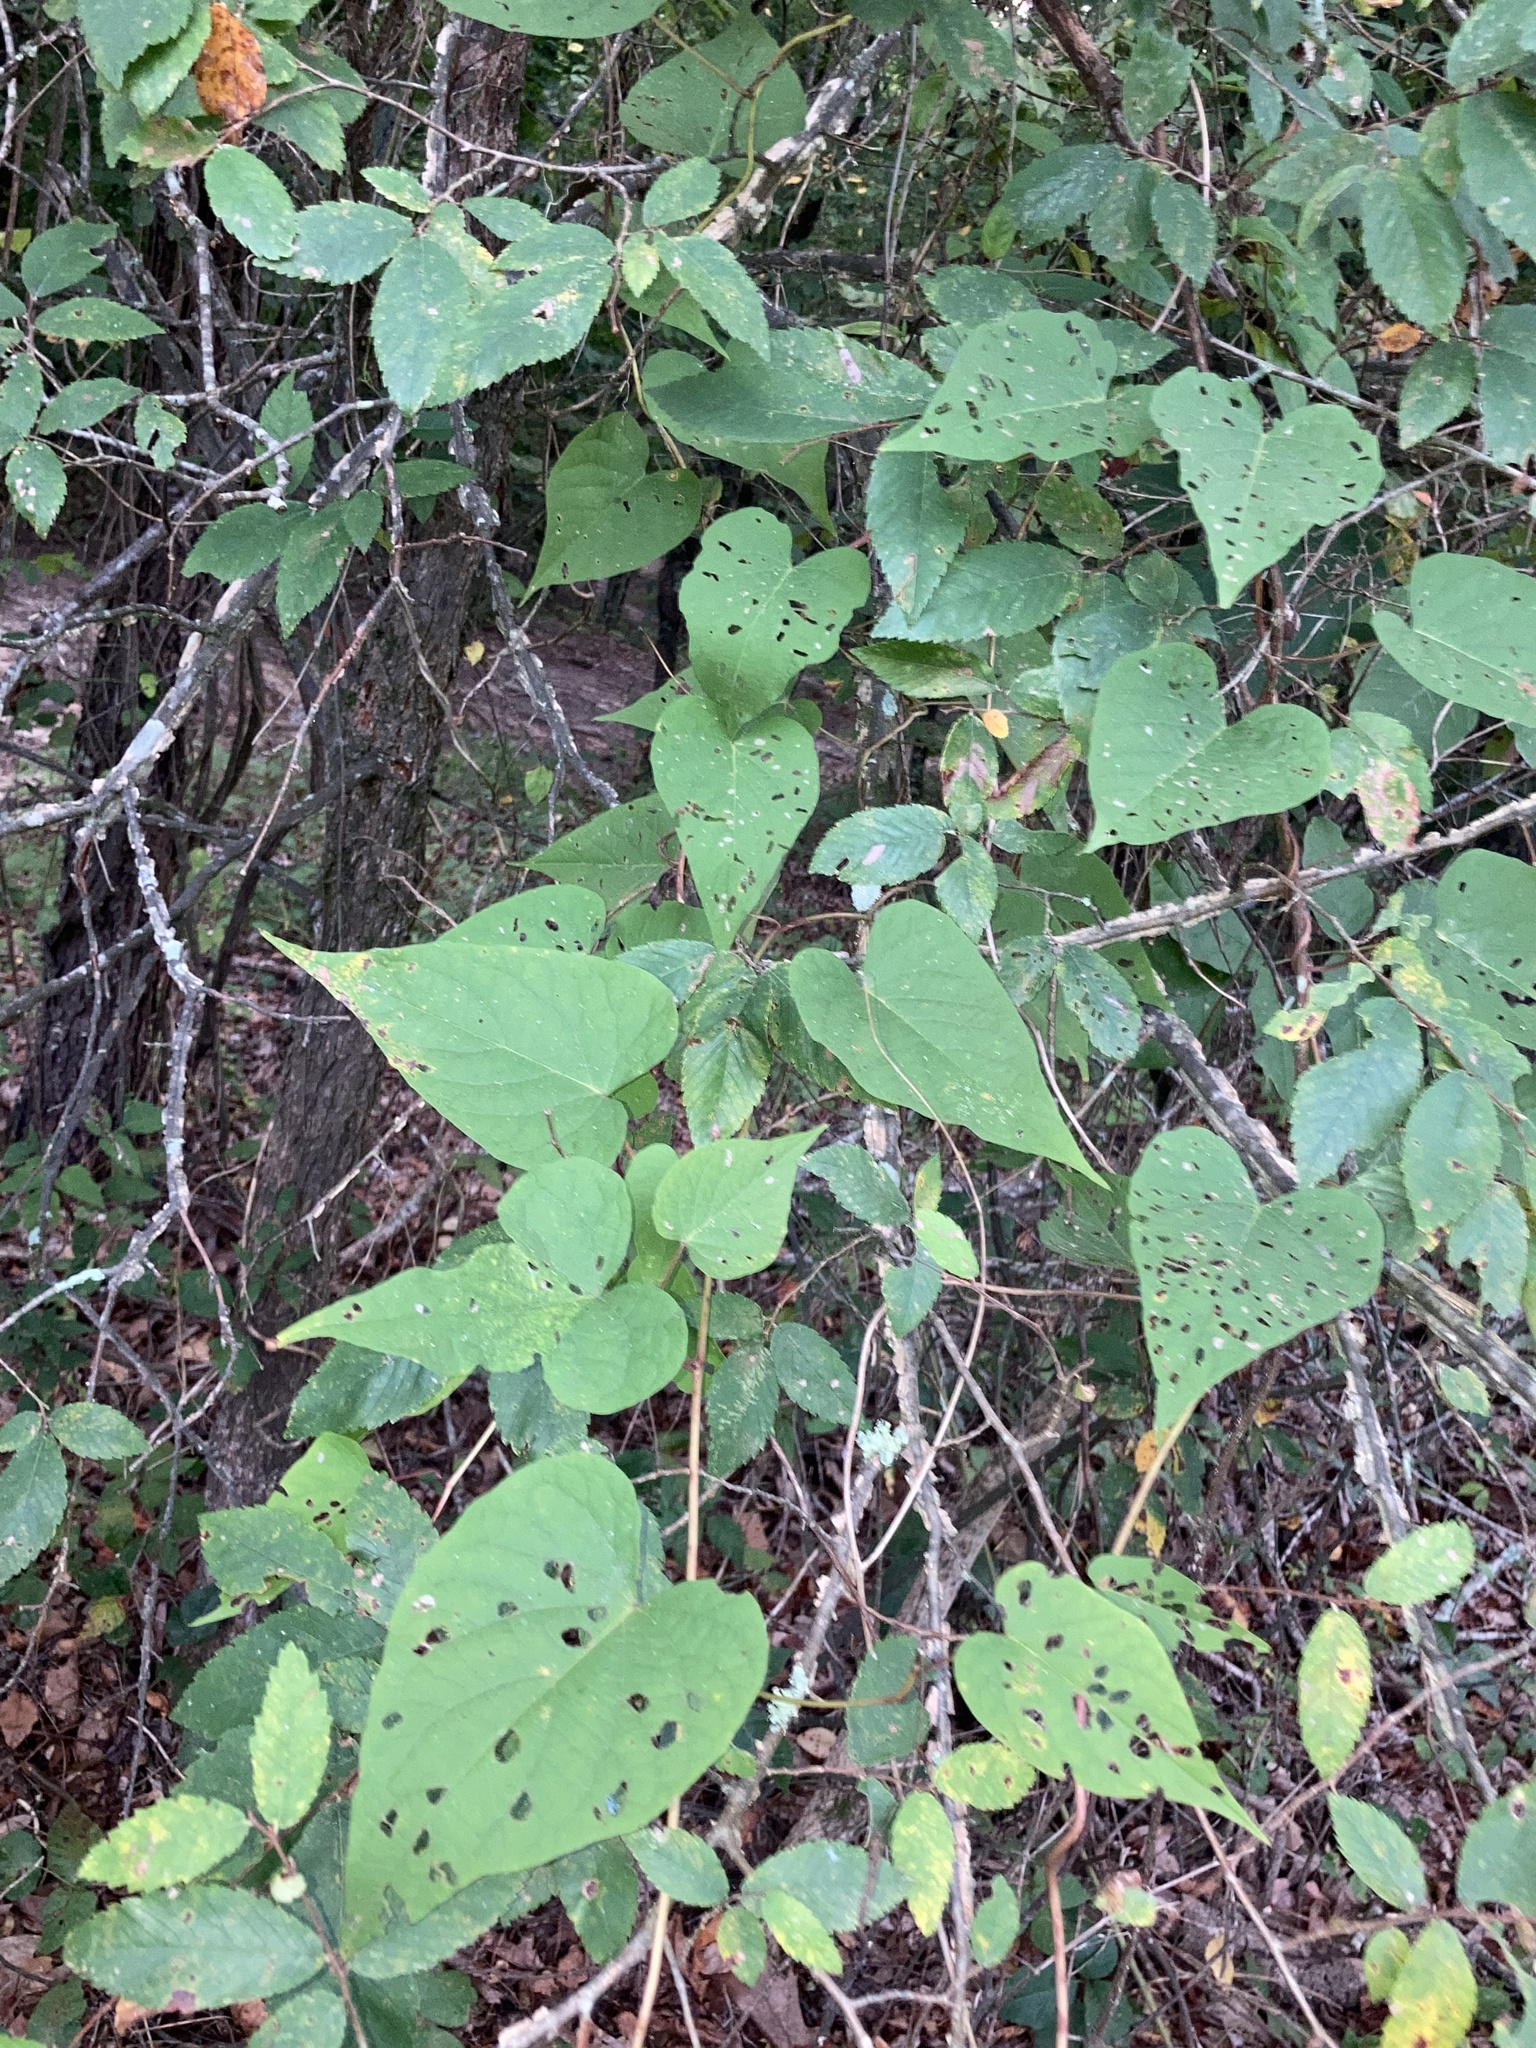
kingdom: Plantae
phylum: Tracheophyta
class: Magnoliopsida
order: Solanales
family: Convolvulaceae
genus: Ipomoea
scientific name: Ipomoea pandurata
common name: Man-of-the-earth
